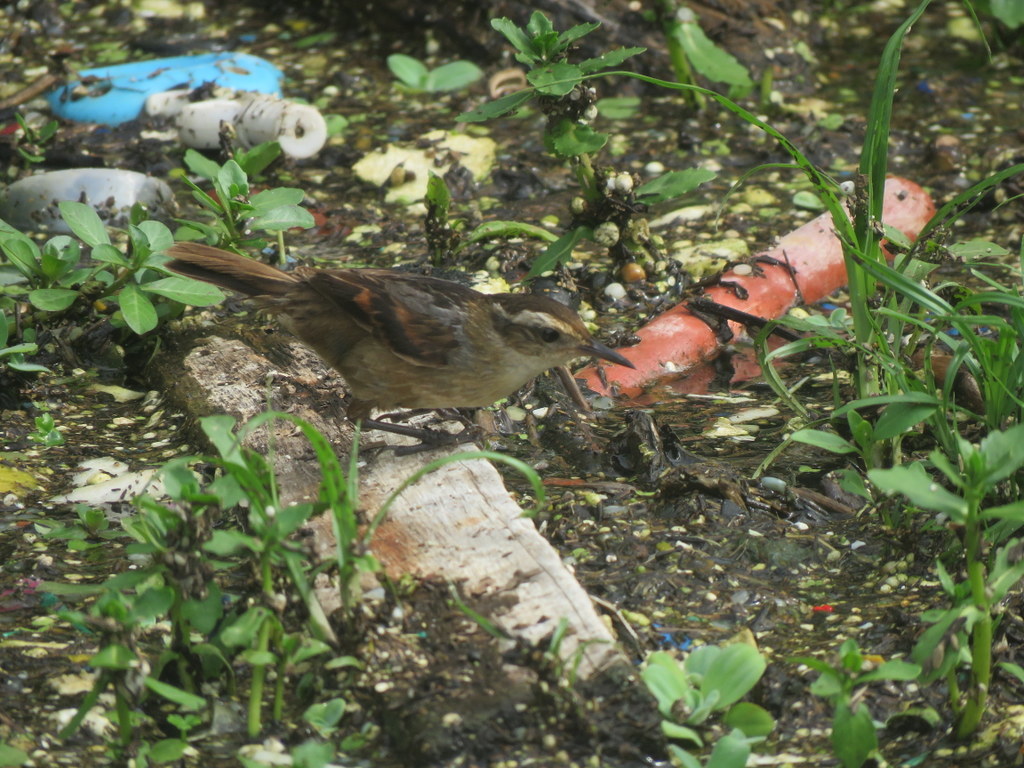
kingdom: Animalia
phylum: Chordata
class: Aves
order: Passeriformes
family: Furnariidae
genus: Phleocryptes
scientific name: Phleocryptes melanops
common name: Wren-like rushbird
